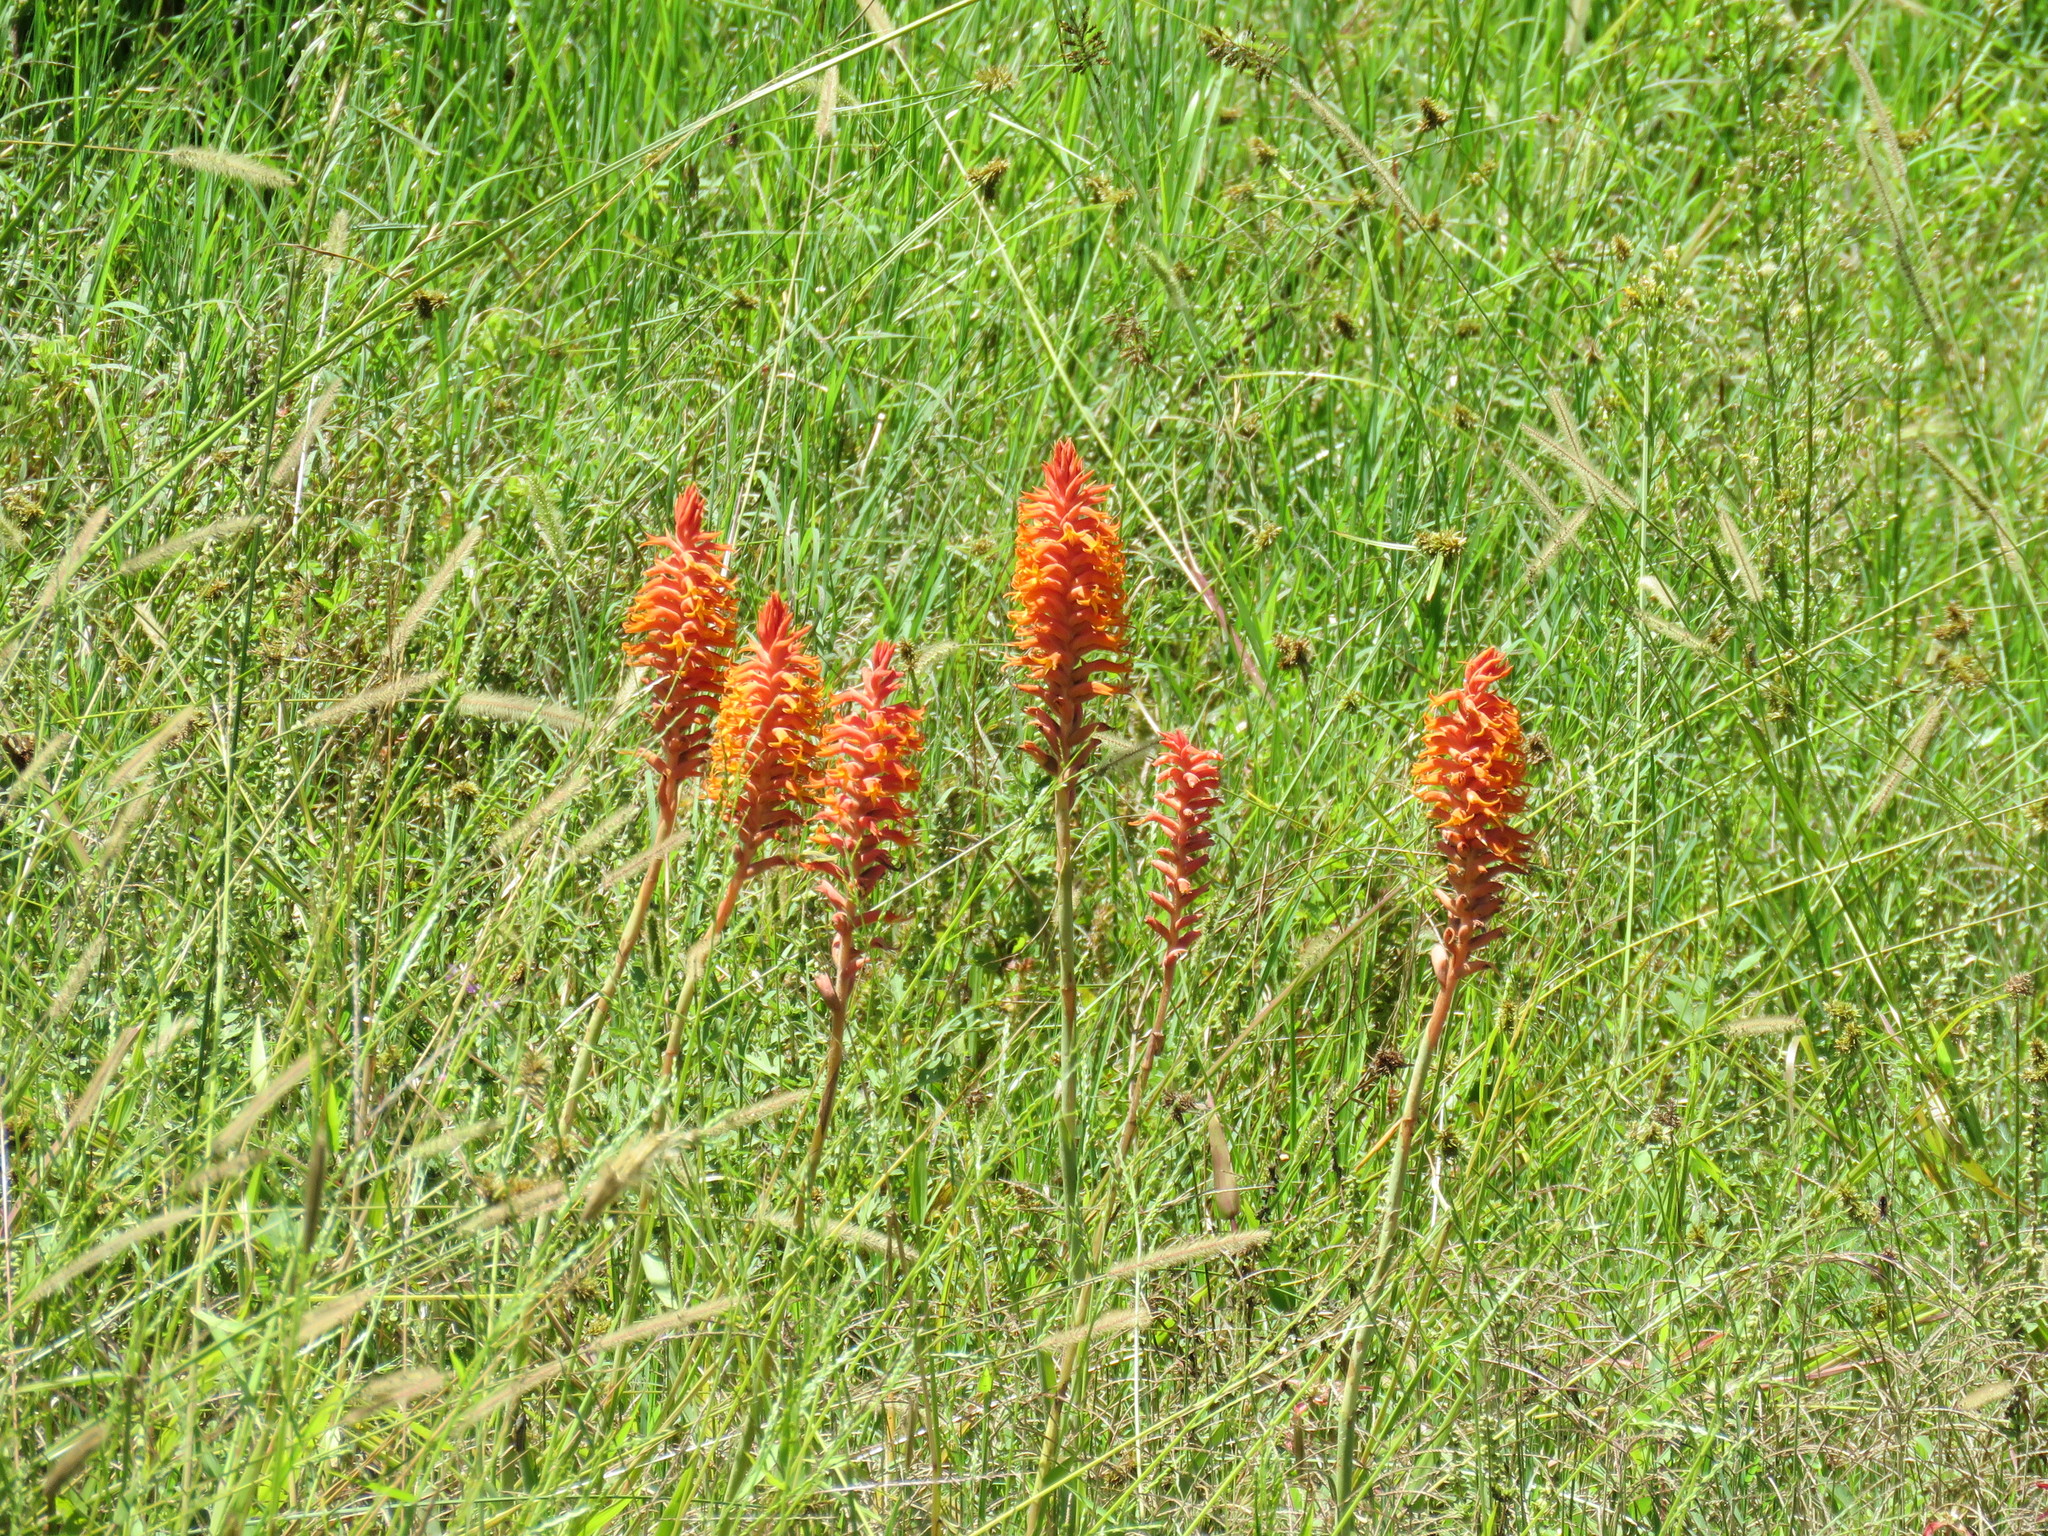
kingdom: Plantae
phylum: Tracheophyta
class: Liliopsida
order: Asparagales
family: Orchidaceae
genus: Dichromanthus
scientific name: Dichromanthus cinnabarinus
